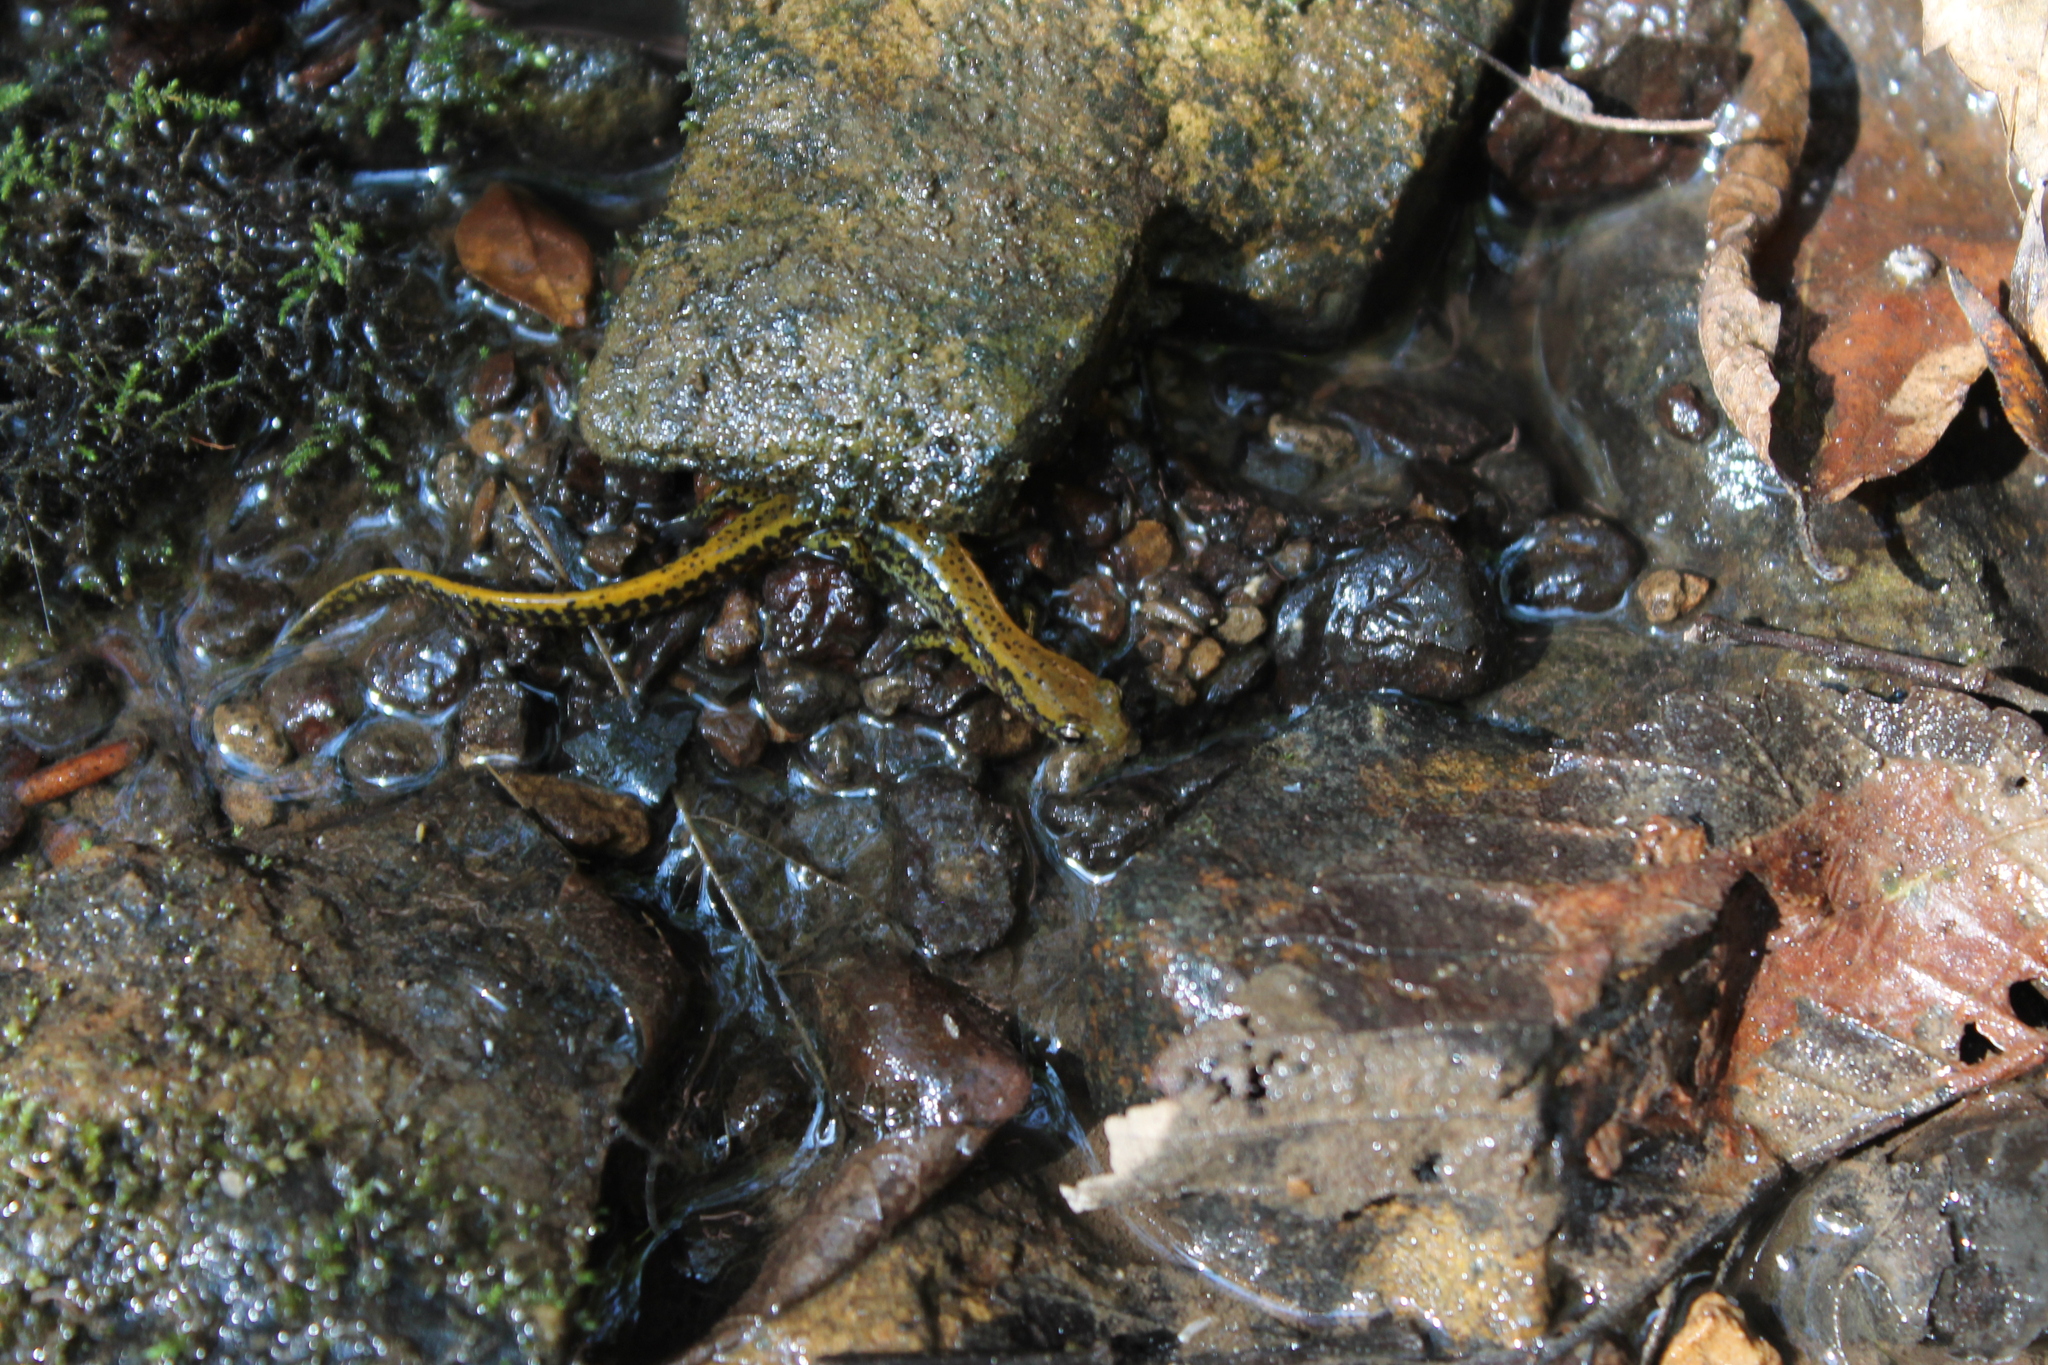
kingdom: Animalia
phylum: Chordata
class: Amphibia
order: Caudata
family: Plethodontidae
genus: Eurycea
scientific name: Eurycea longicauda
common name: Long-tailed salamander
